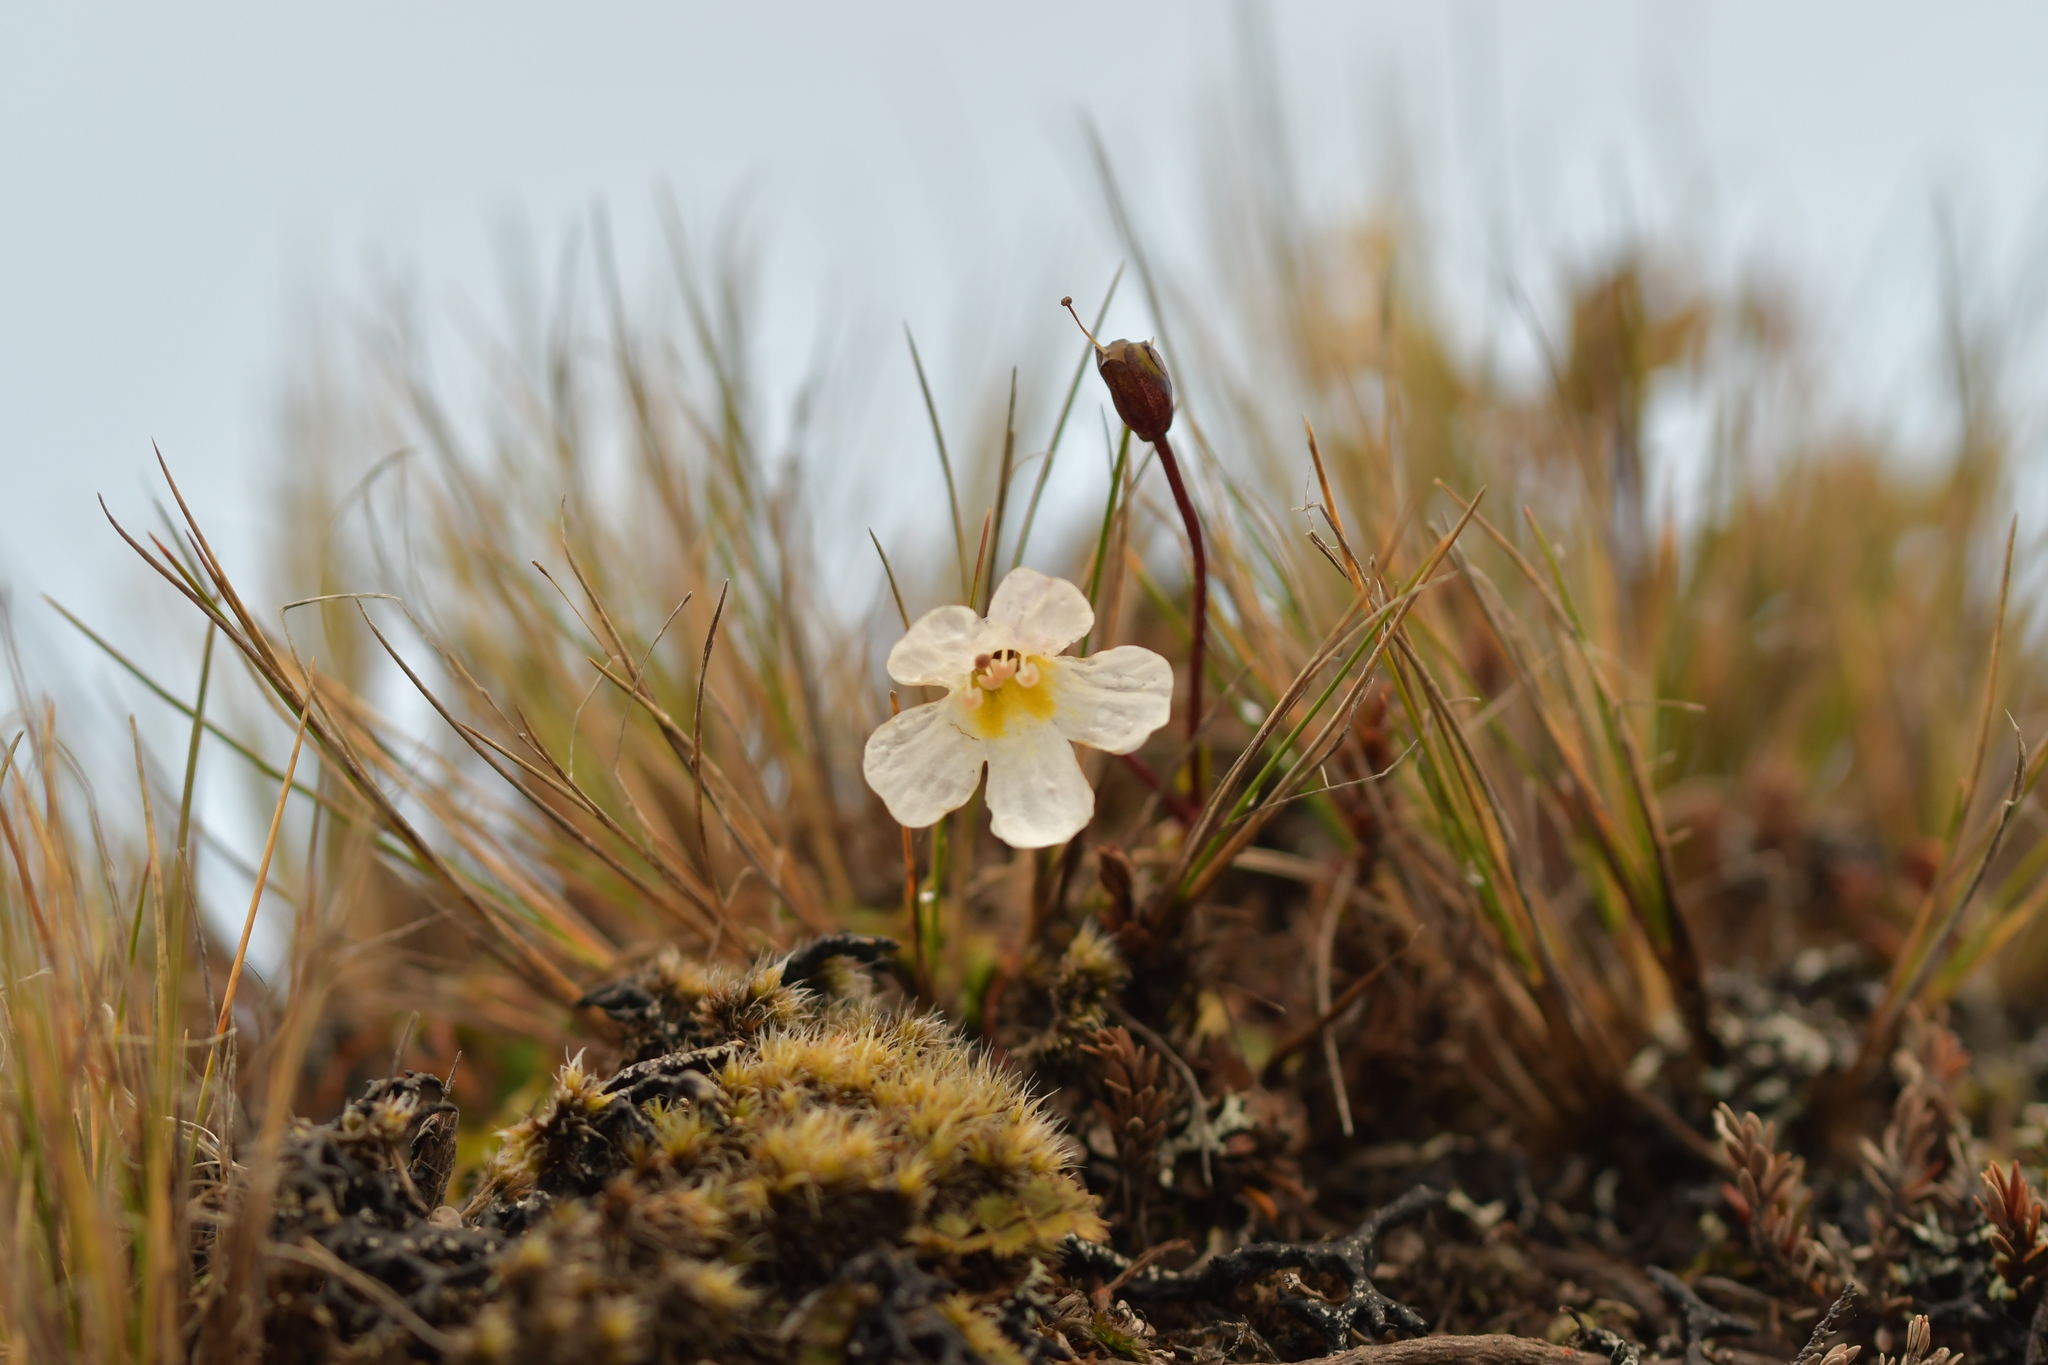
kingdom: Plantae
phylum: Tracheophyta
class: Magnoliopsida
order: Lamiales
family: Plantaginaceae
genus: Ourisia
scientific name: Ourisia vulcanica
